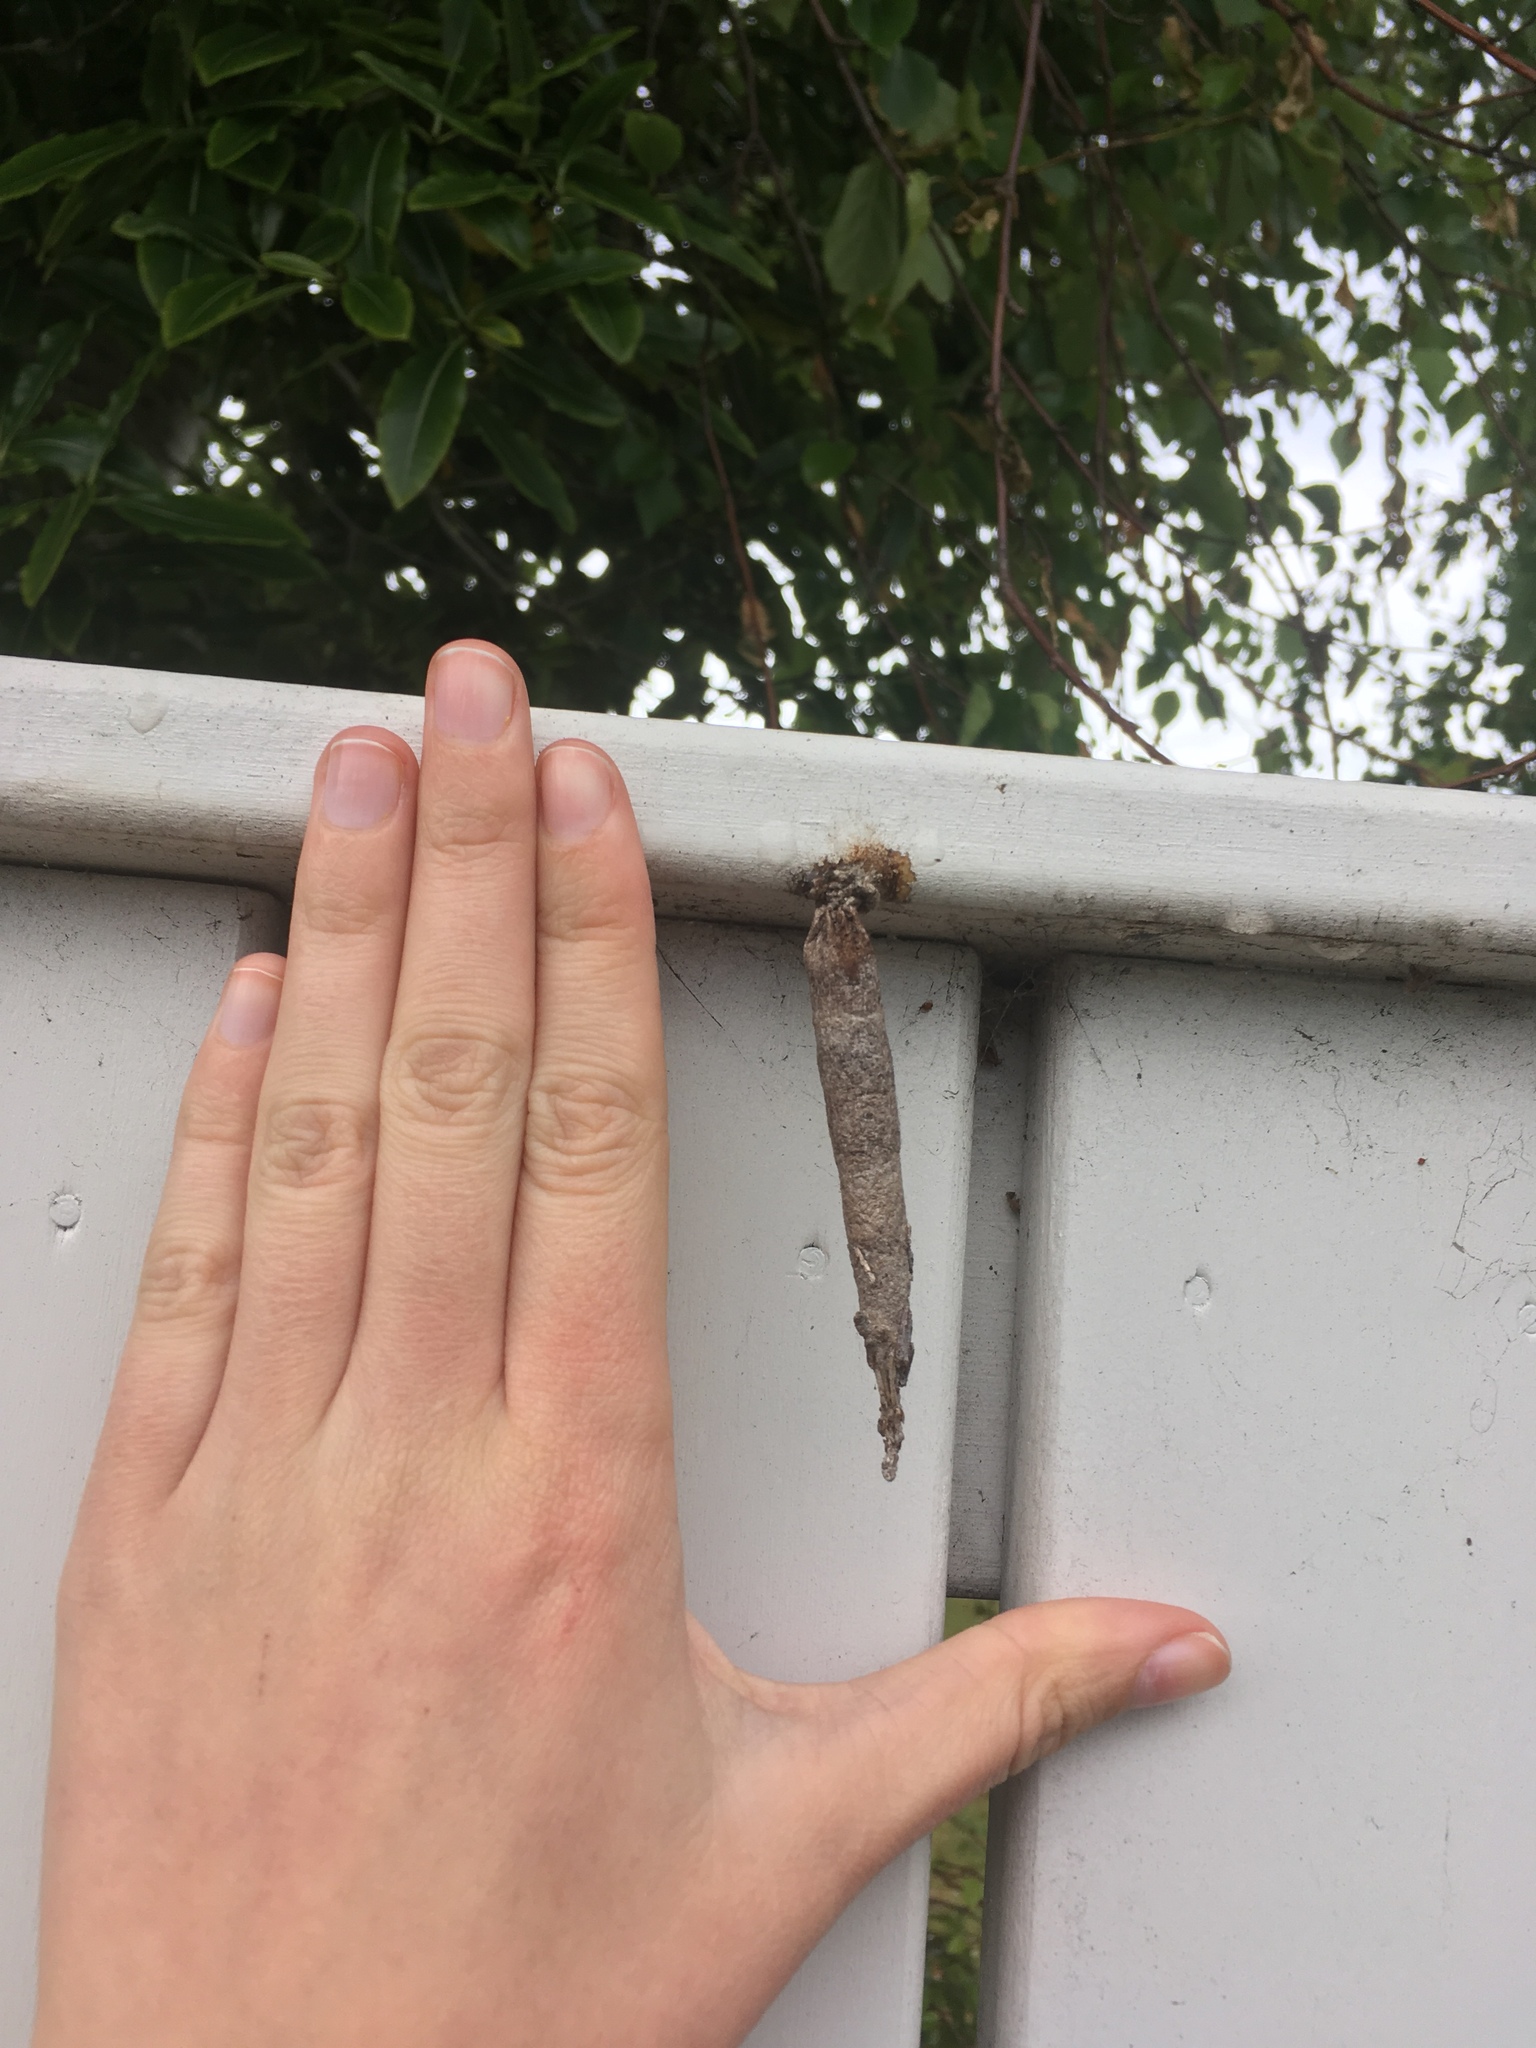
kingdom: Animalia
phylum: Arthropoda
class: Insecta
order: Lepidoptera
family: Psychidae
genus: Liothula
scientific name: Liothula omnivora
